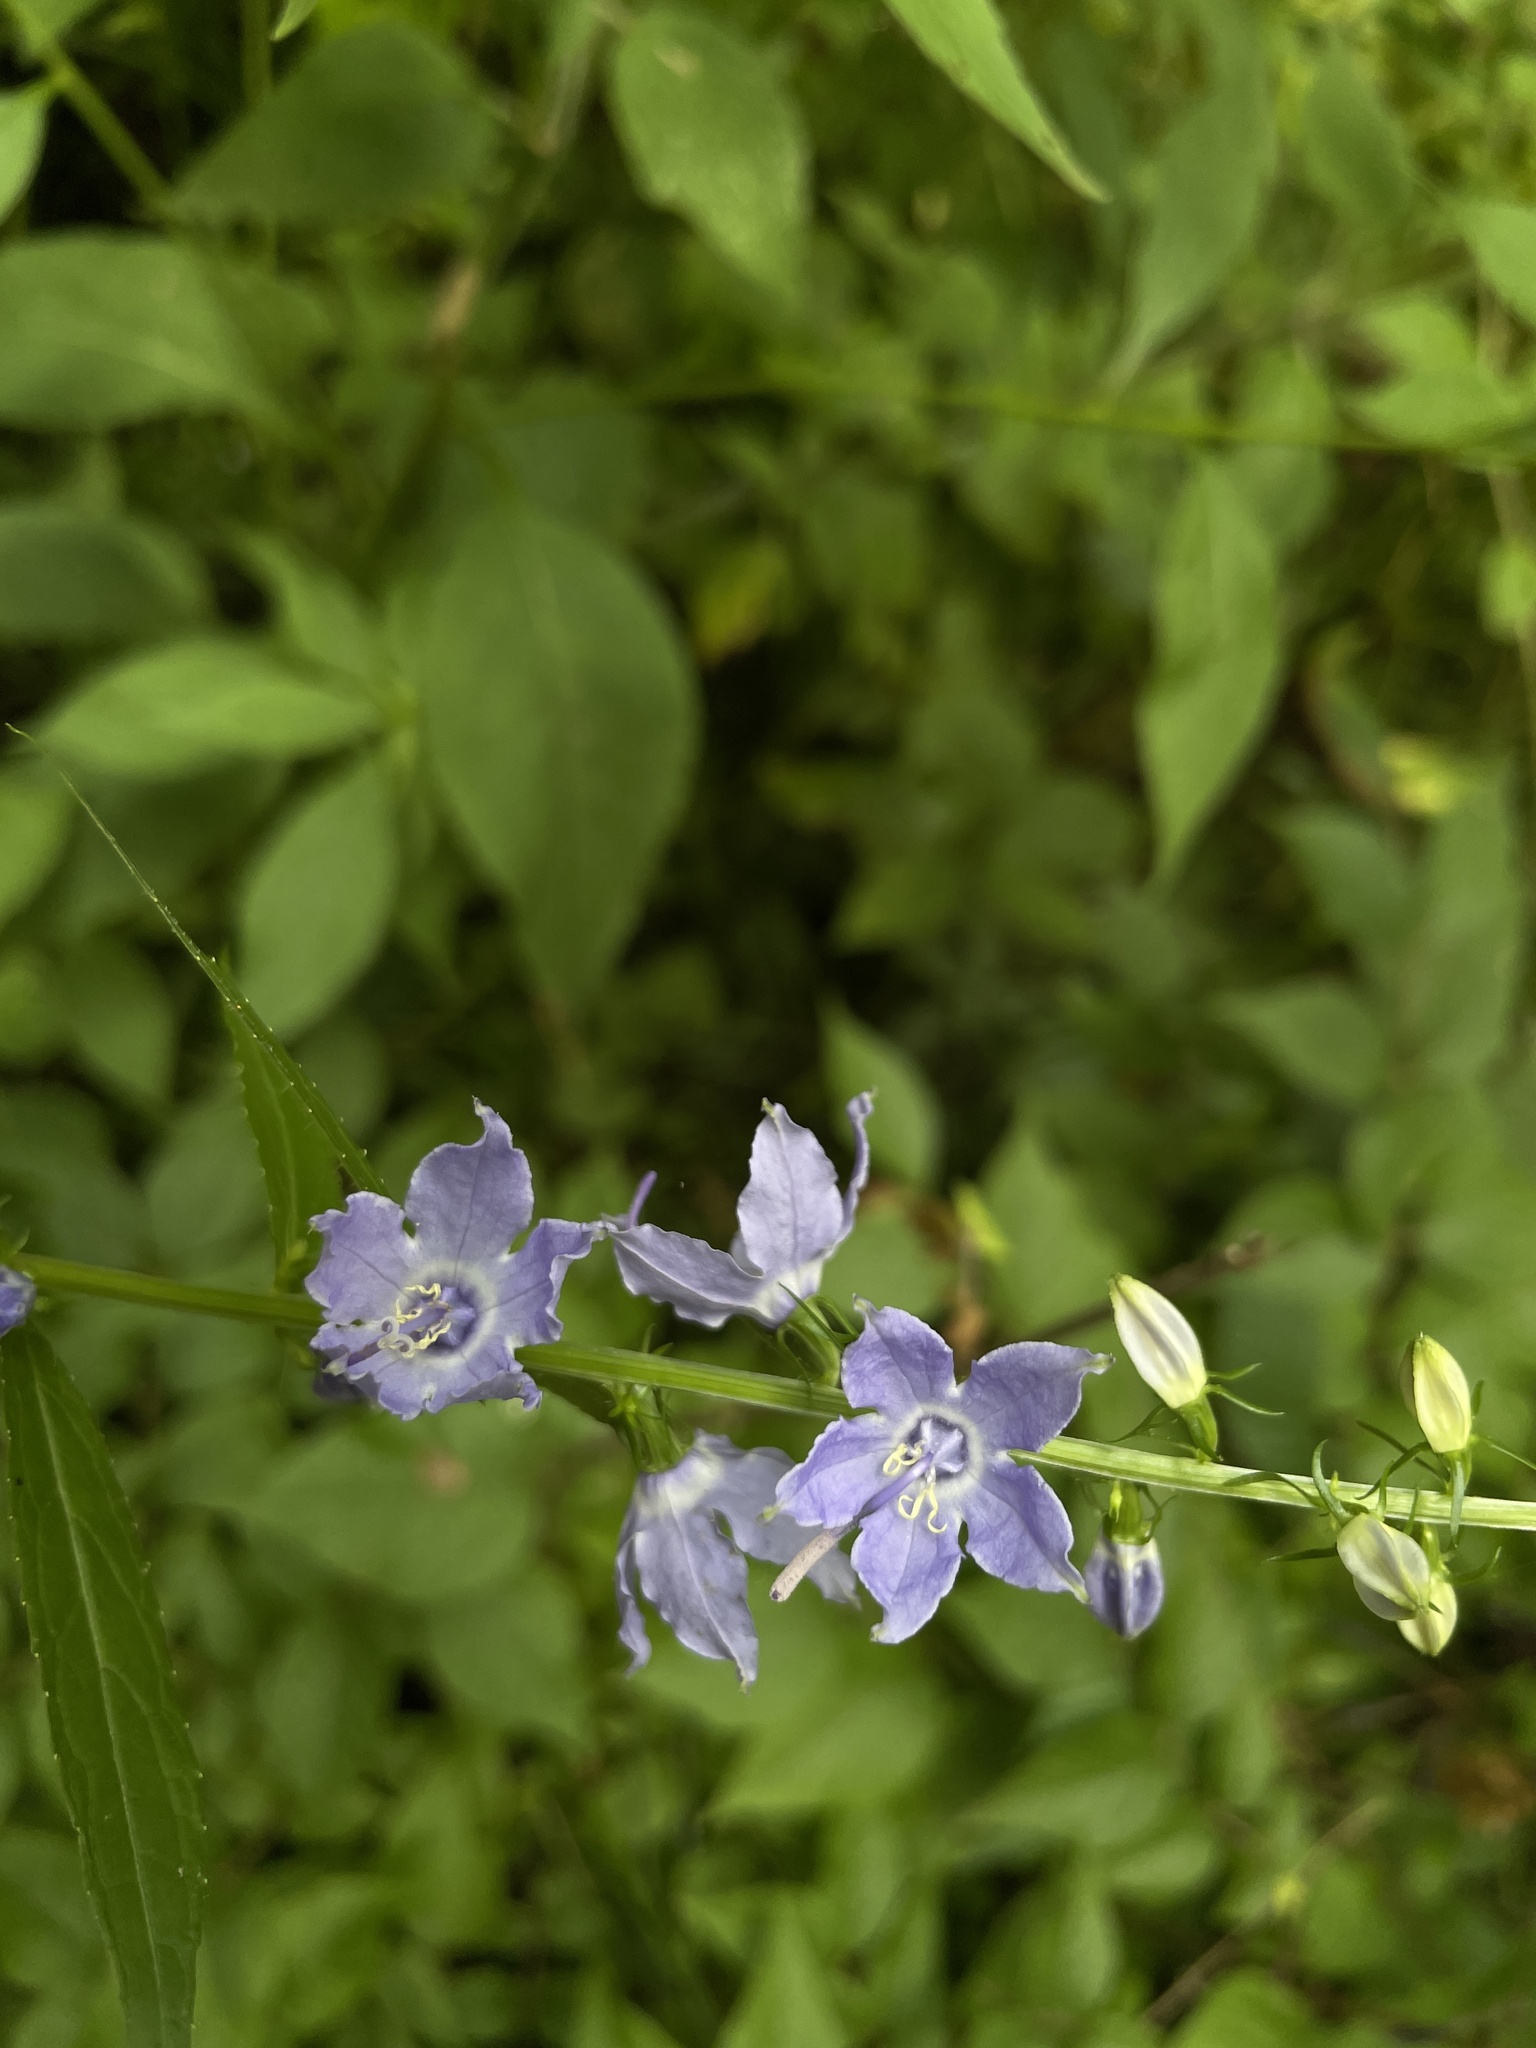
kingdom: Plantae
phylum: Tracheophyta
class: Magnoliopsida
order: Asterales
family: Campanulaceae
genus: Campanulastrum
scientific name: Campanulastrum americanum
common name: American bellflower
